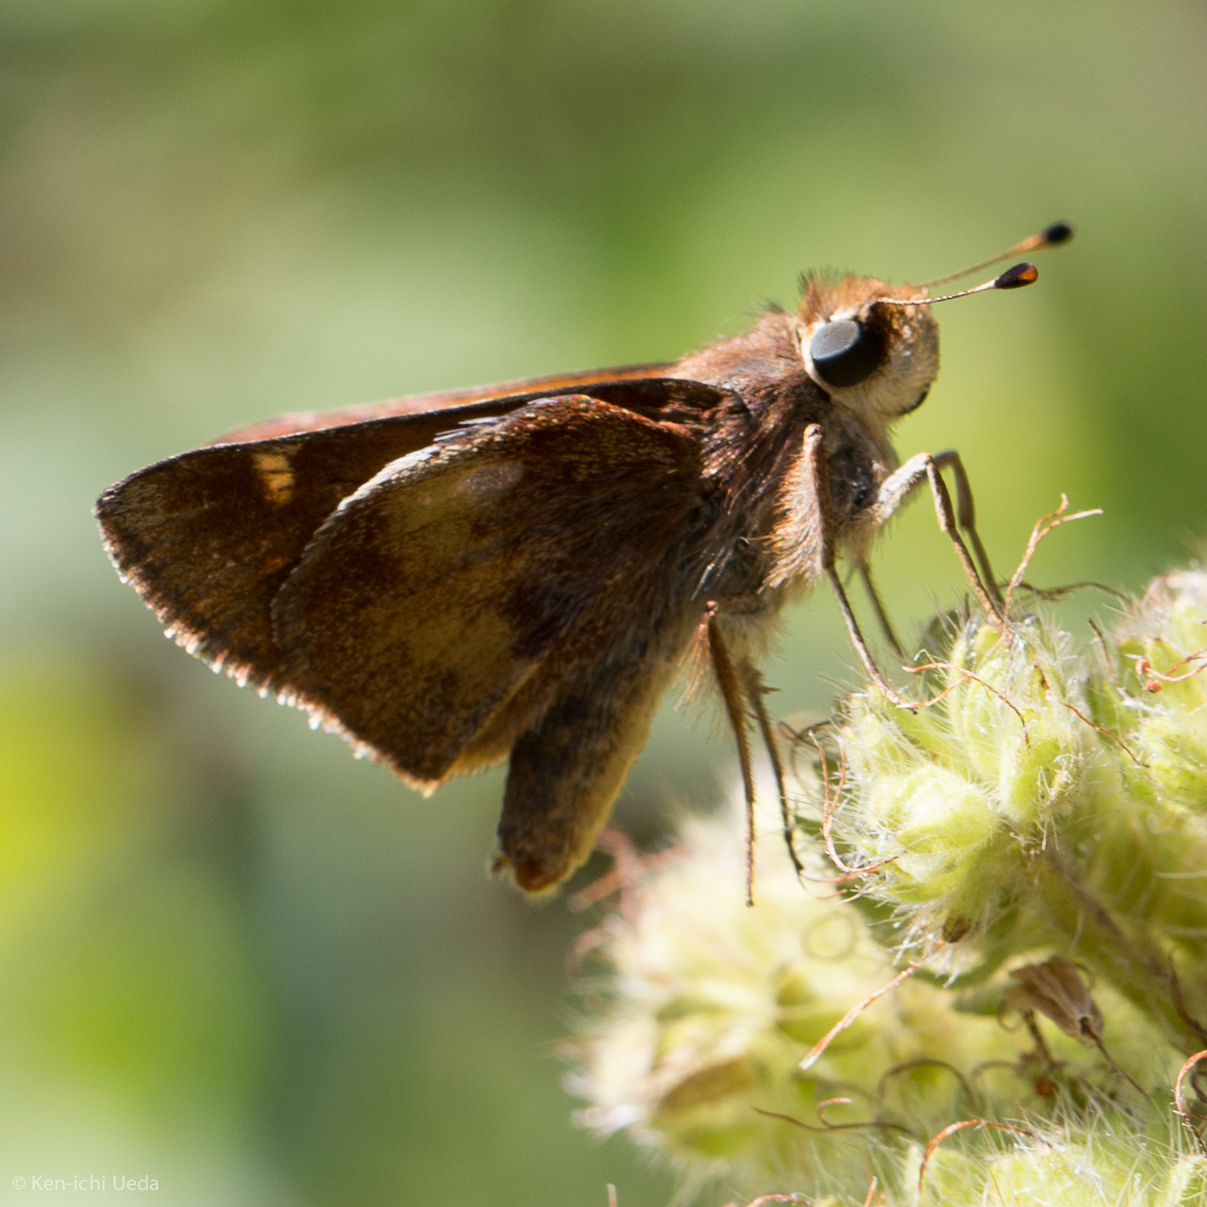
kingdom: Animalia
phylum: Arthropoda
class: Insecta
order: Lepidoptera
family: Hesperiidae
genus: Lon
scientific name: Lon melane
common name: Umber skipper
